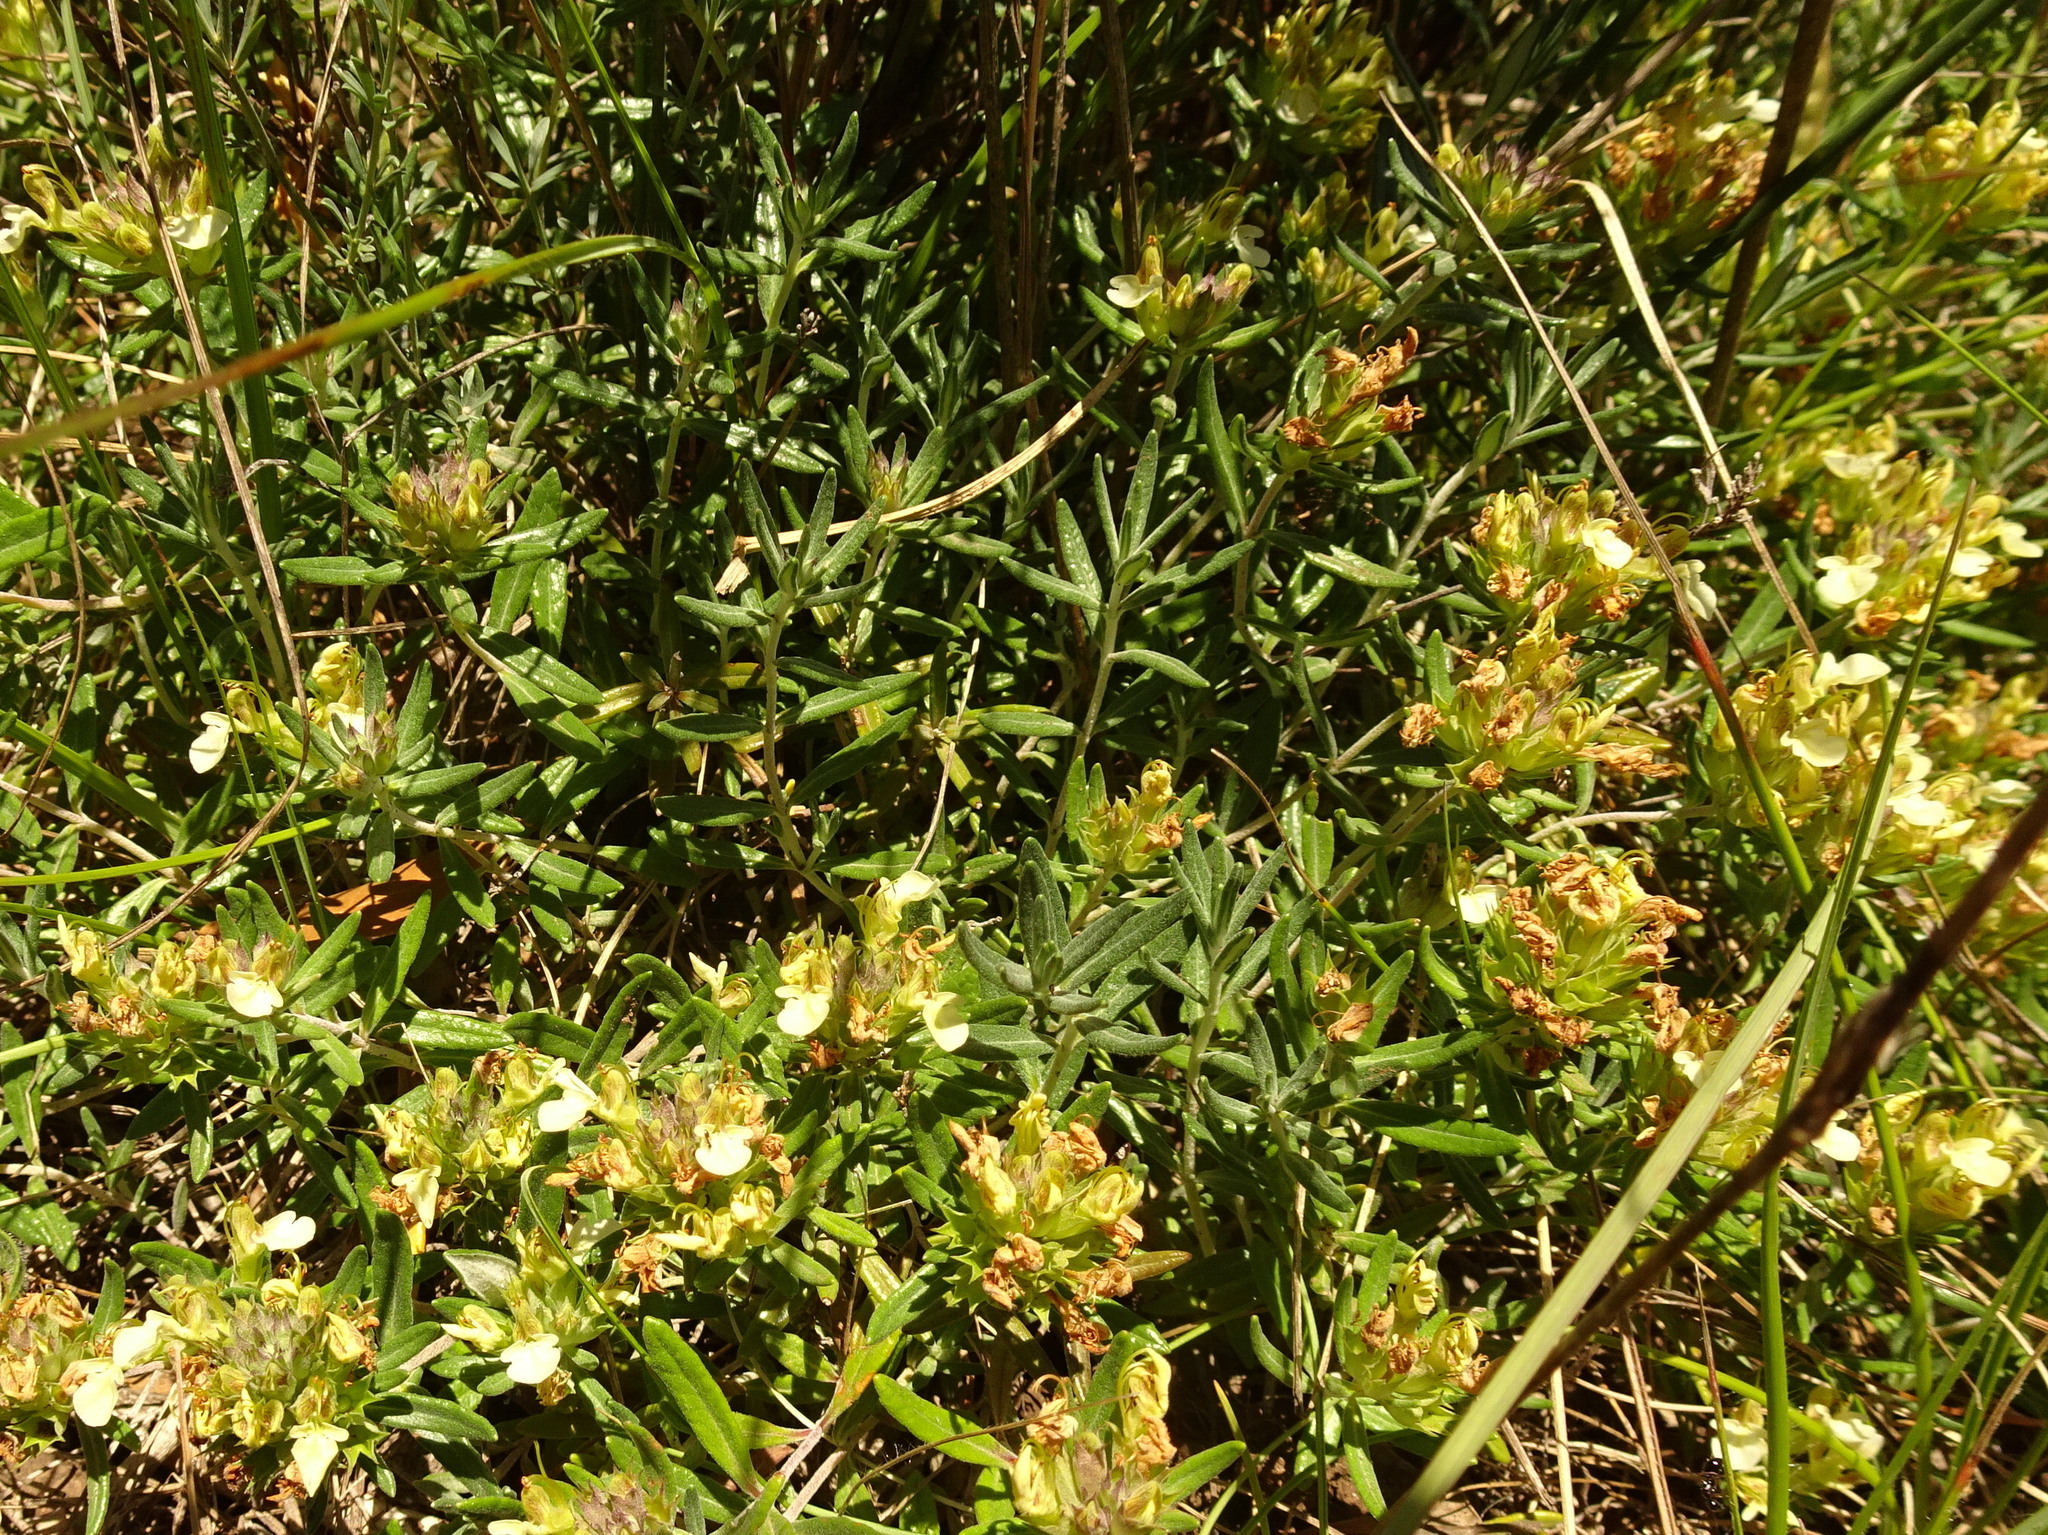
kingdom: Plantae
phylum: Tracheophyta
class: Magnoliopsida
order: Lamiales
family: Lamiaceae
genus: Teucrium
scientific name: Teucrium montanum
